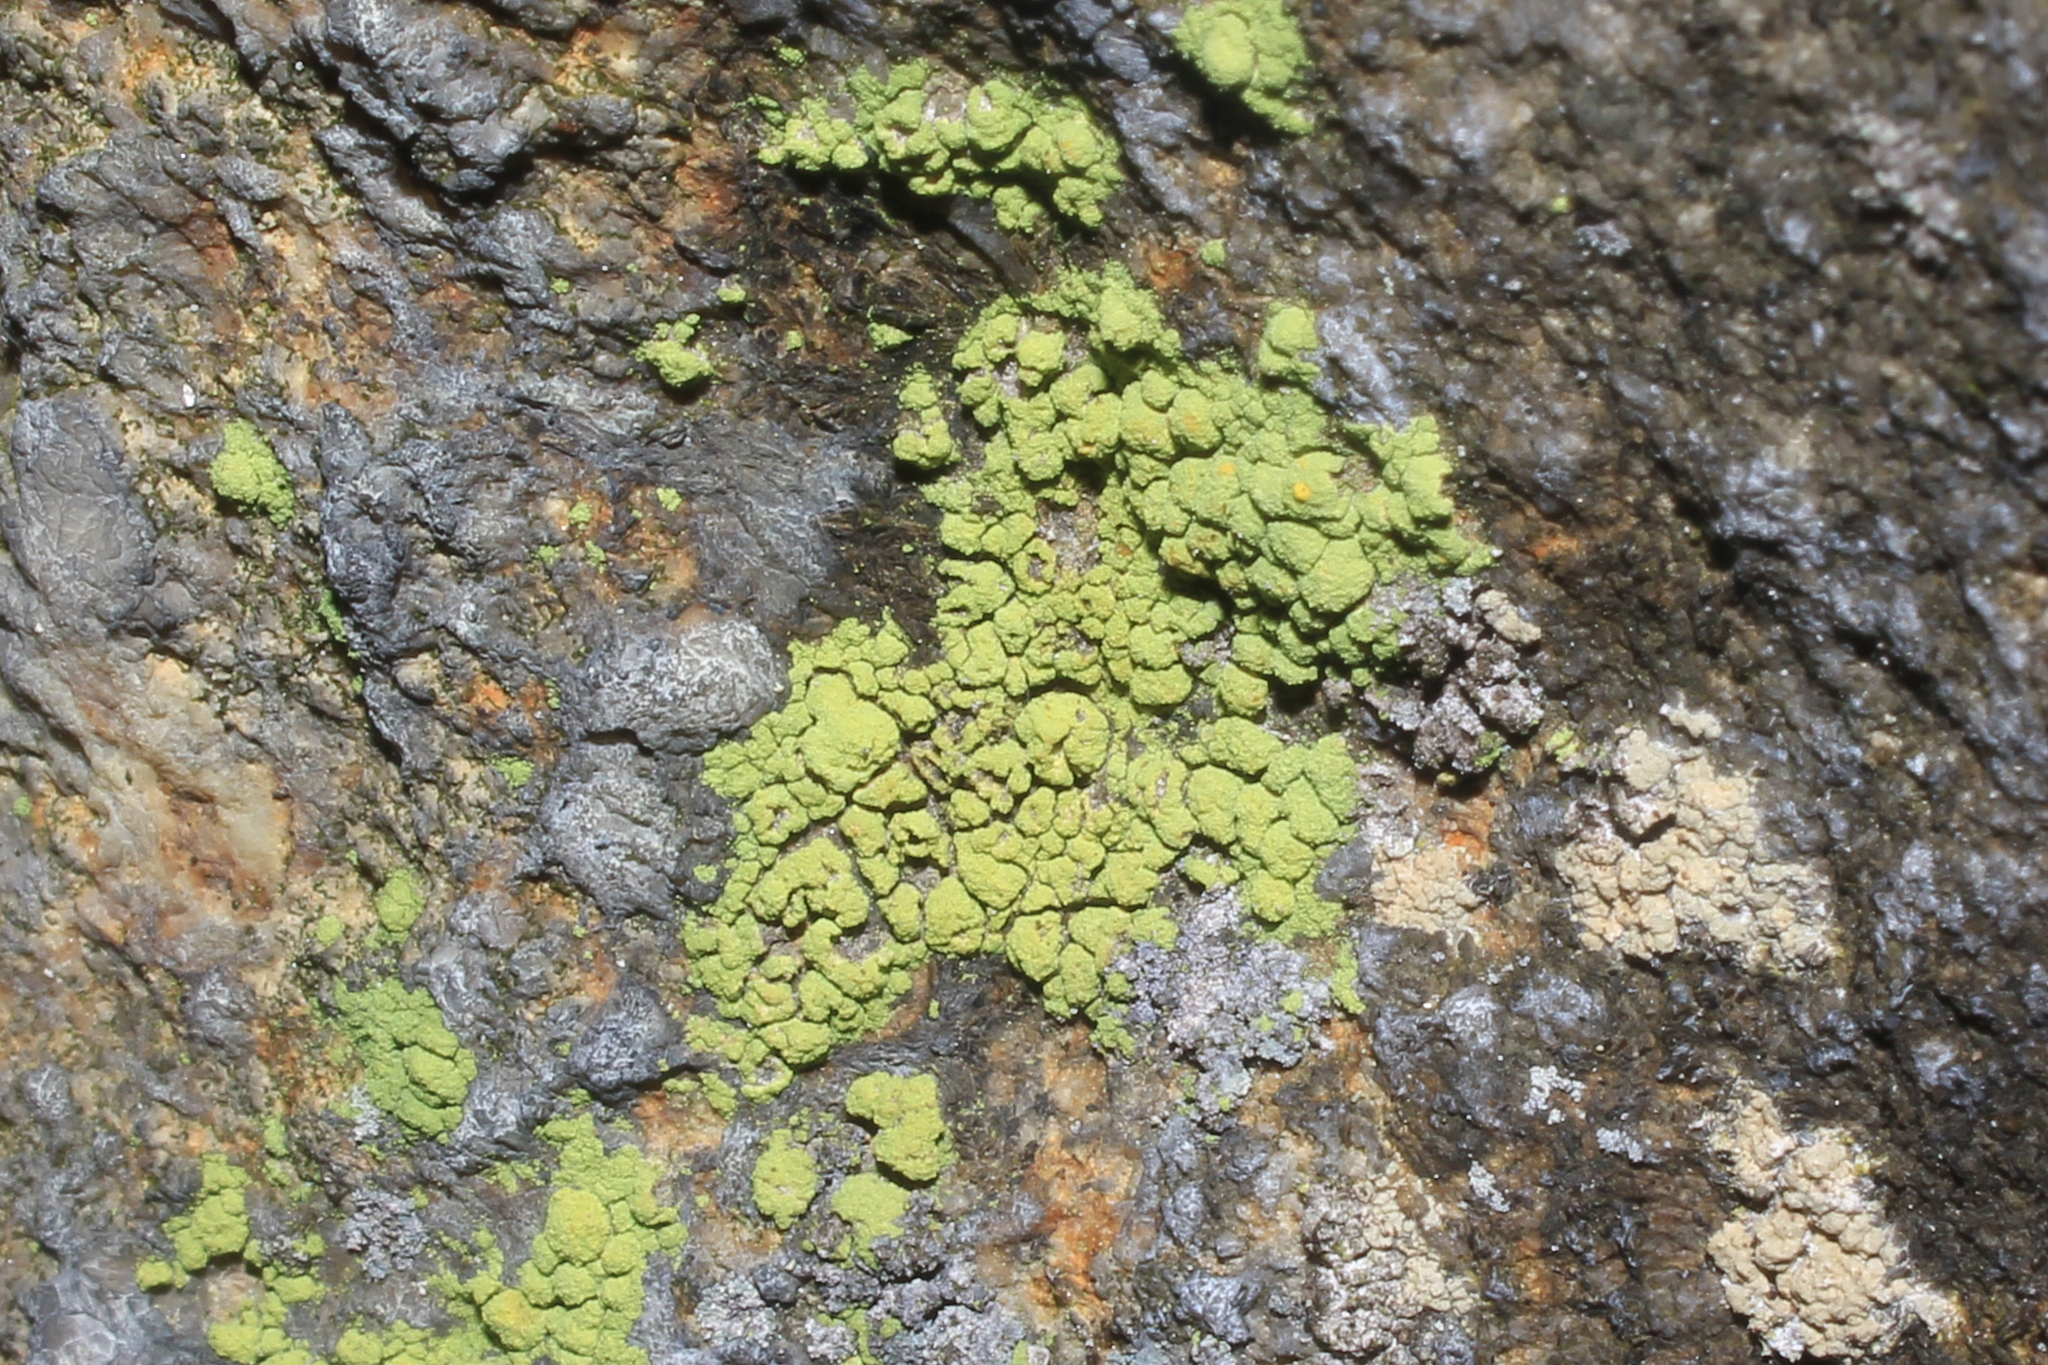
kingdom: Fungi
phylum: Ascomycota
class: Lecanoromycetes
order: Lecanorales
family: Psilolechiaceae
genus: Psilolechia
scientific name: Psilolechia lucida
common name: Sulphur dust lichen
